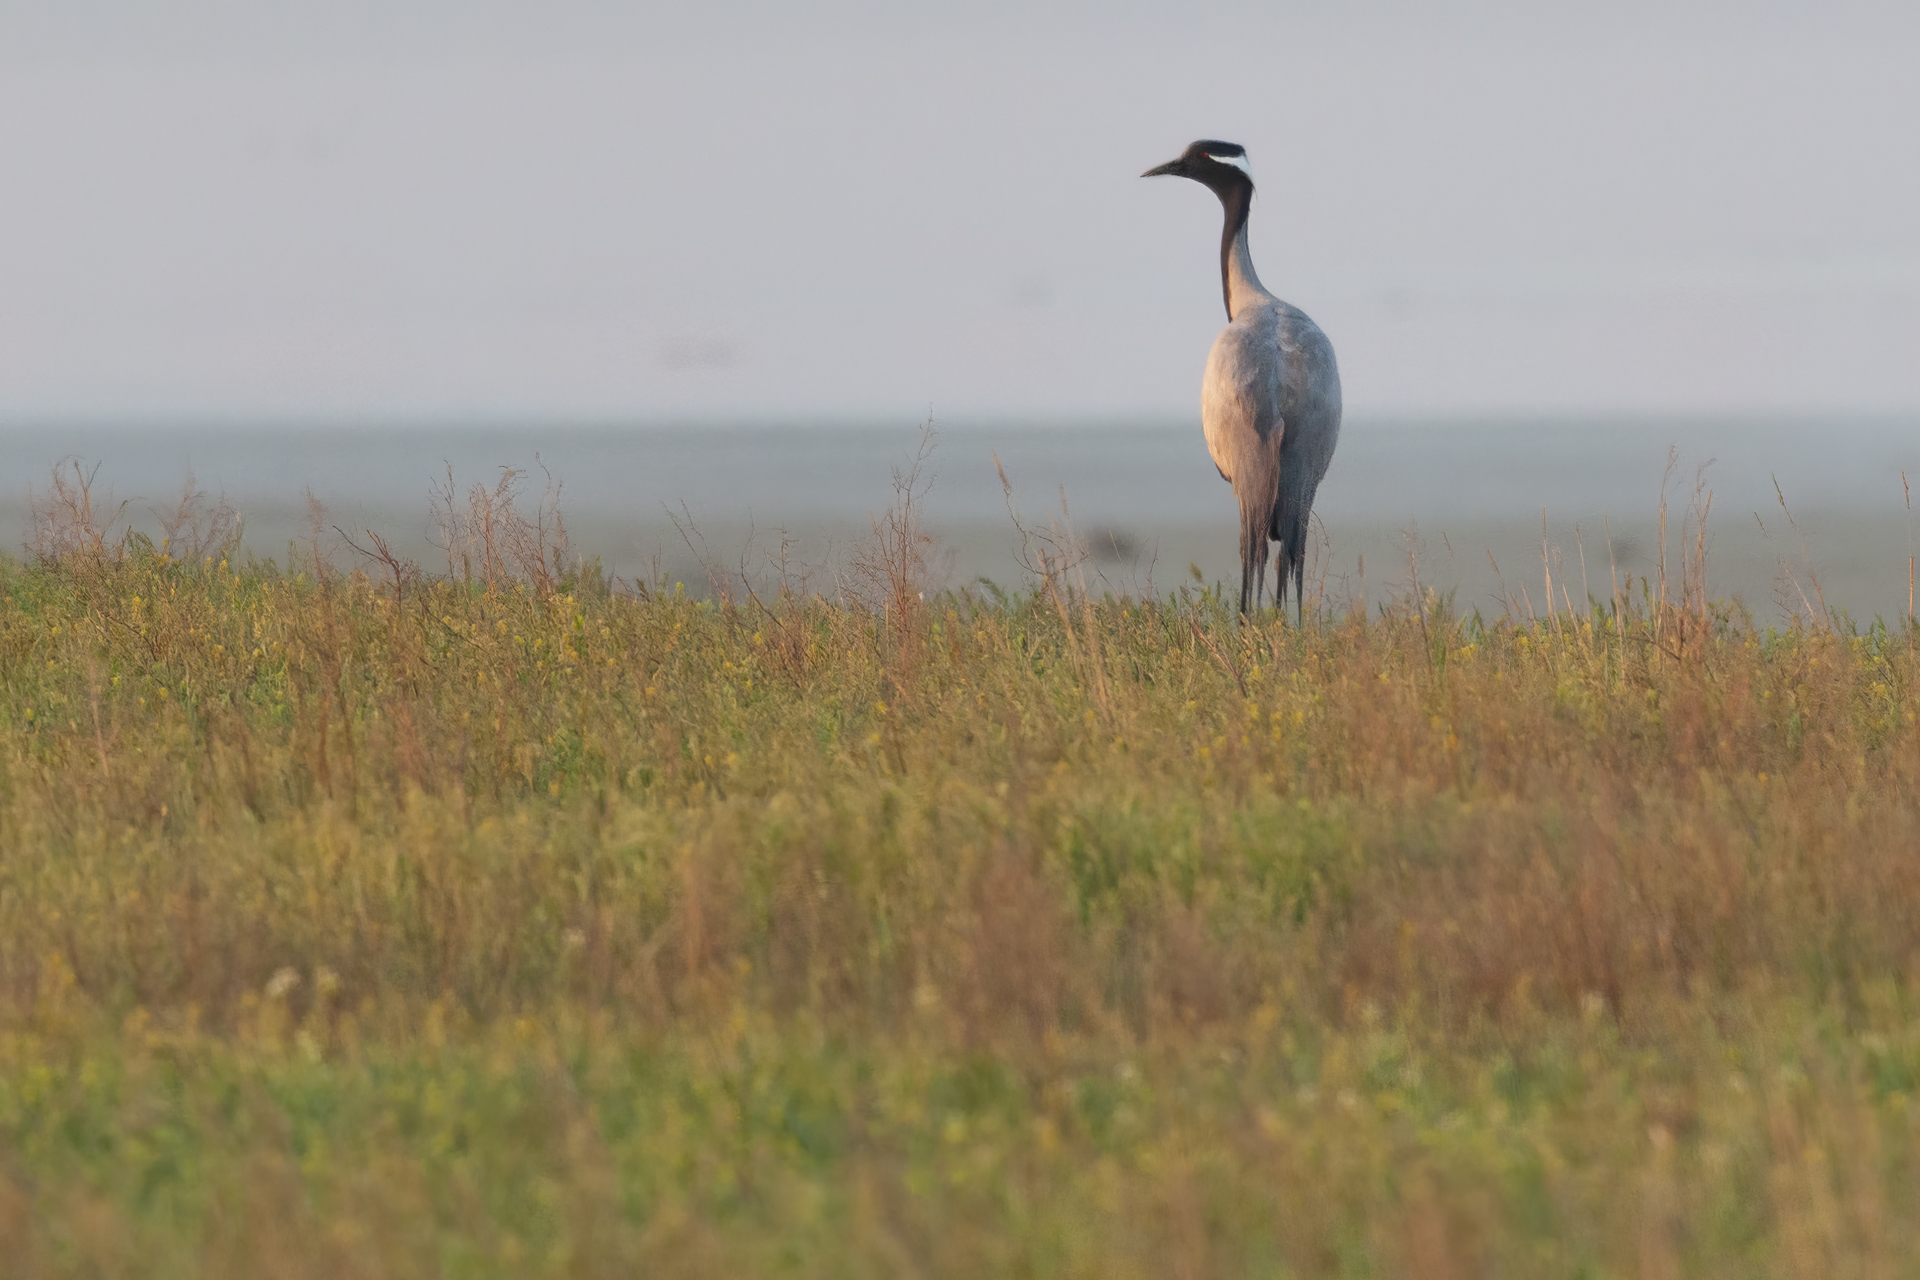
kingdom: Animalia
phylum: Chordata
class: Aves
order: Gruiformes
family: Gruidae
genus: Anthropoides
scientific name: Anthropoides virgo
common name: Demoiselle crane
